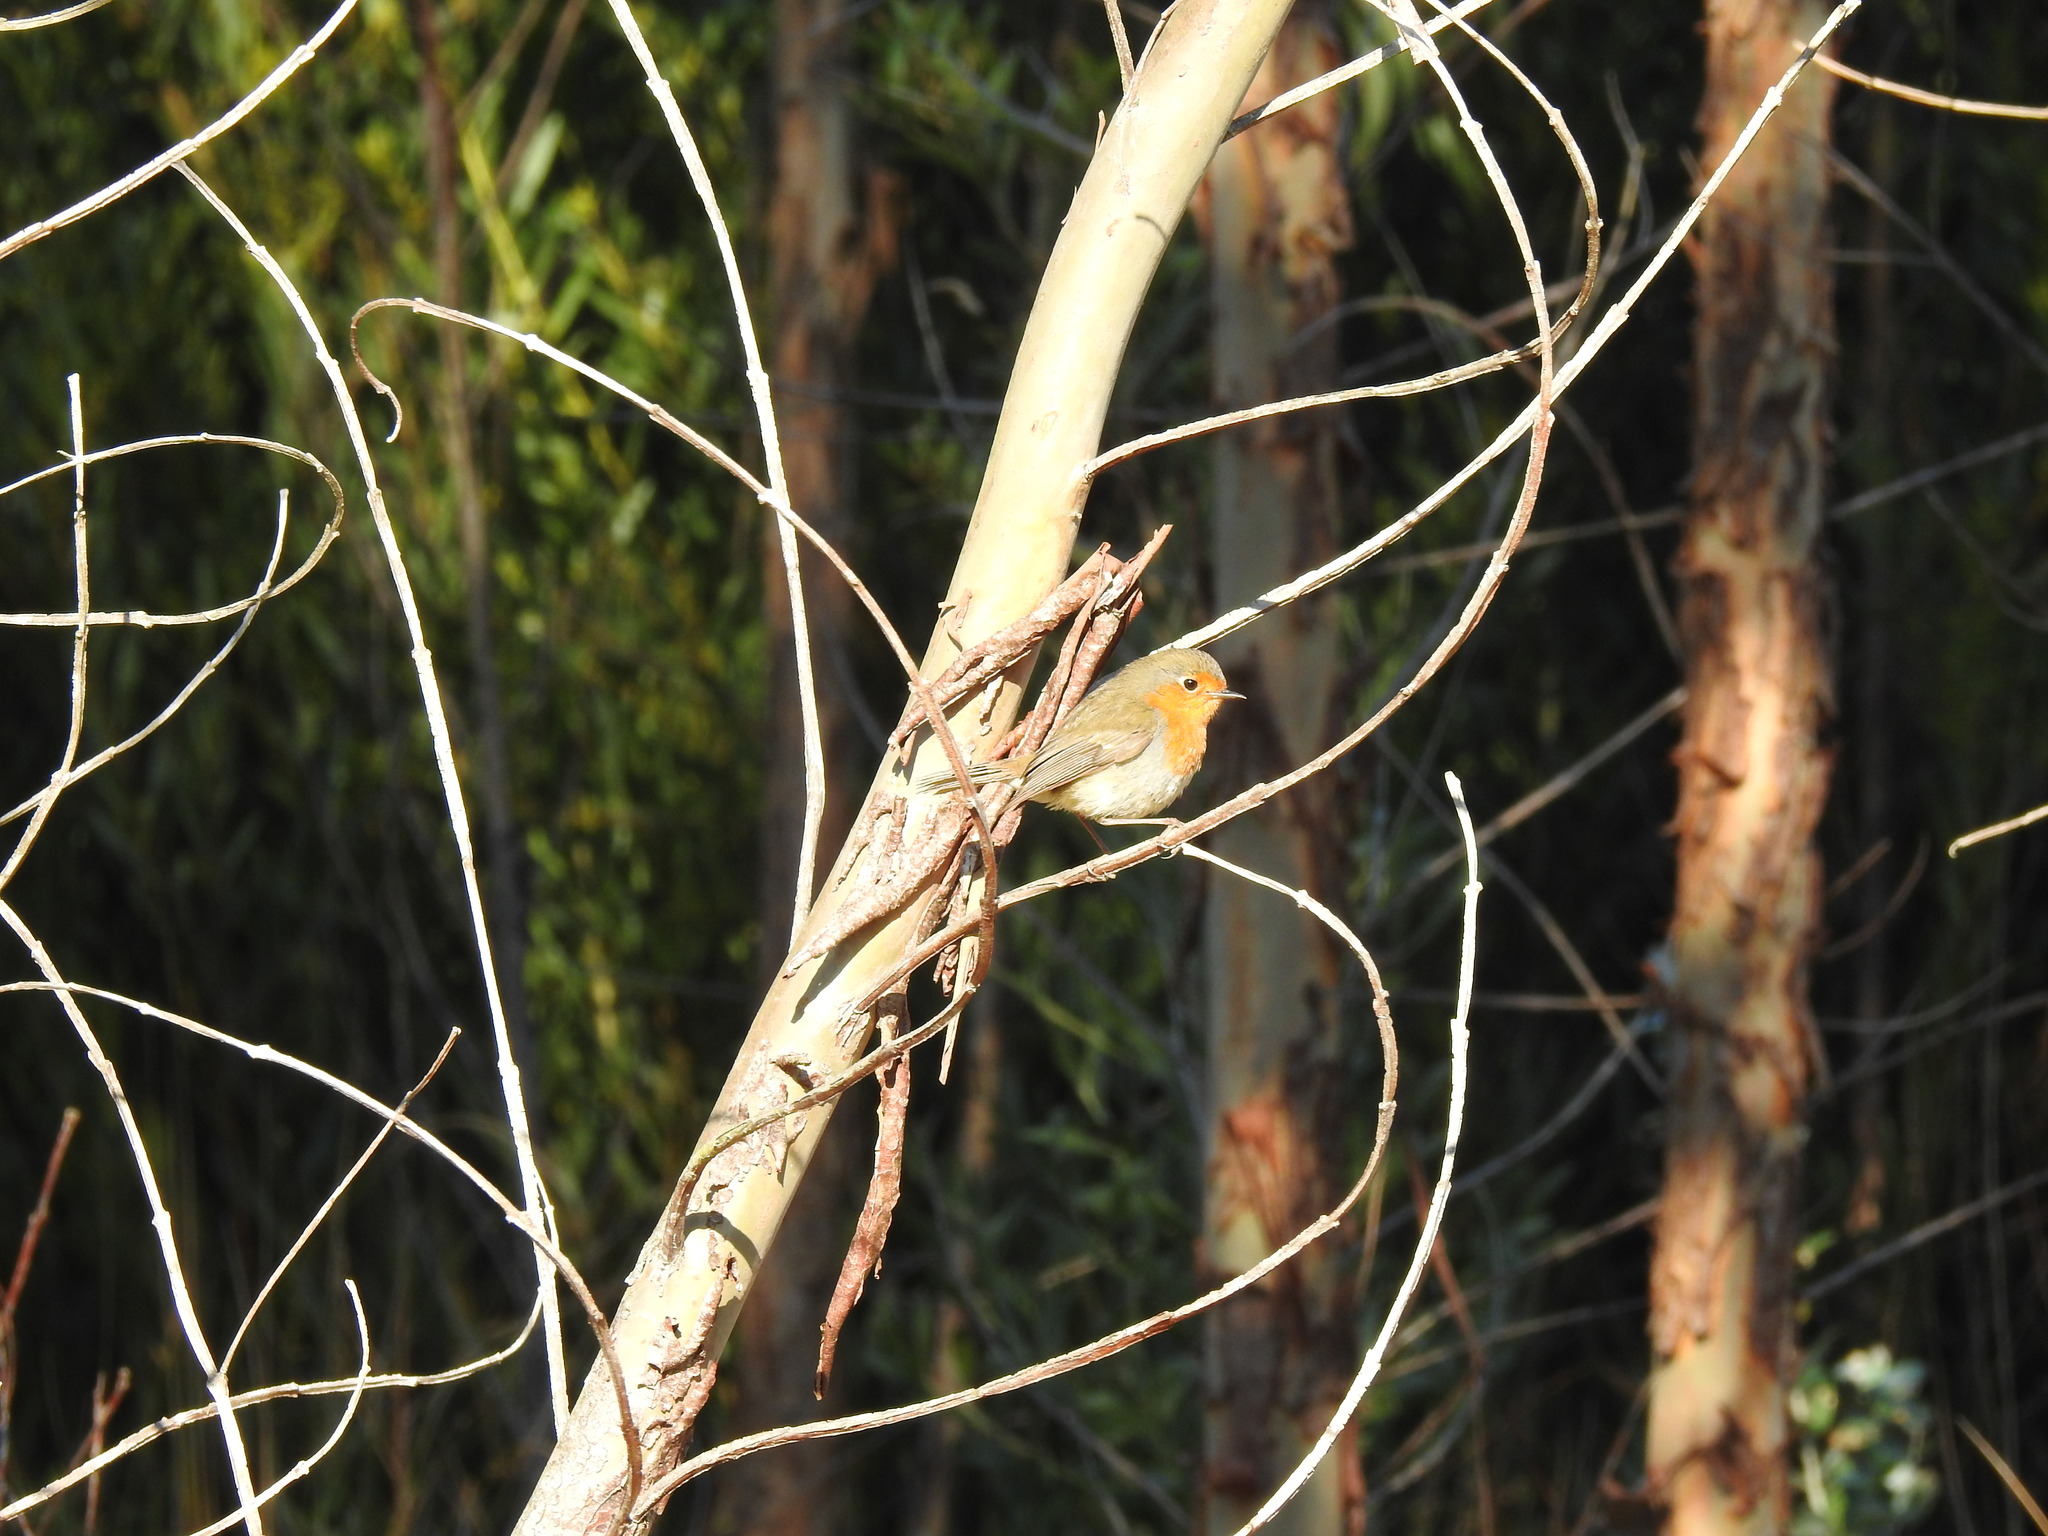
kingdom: Animalia
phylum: Chordata
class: Aves
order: Passeriformes
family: Muscicapidae
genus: Erithacus
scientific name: Erithacus rubecula
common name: European robin
